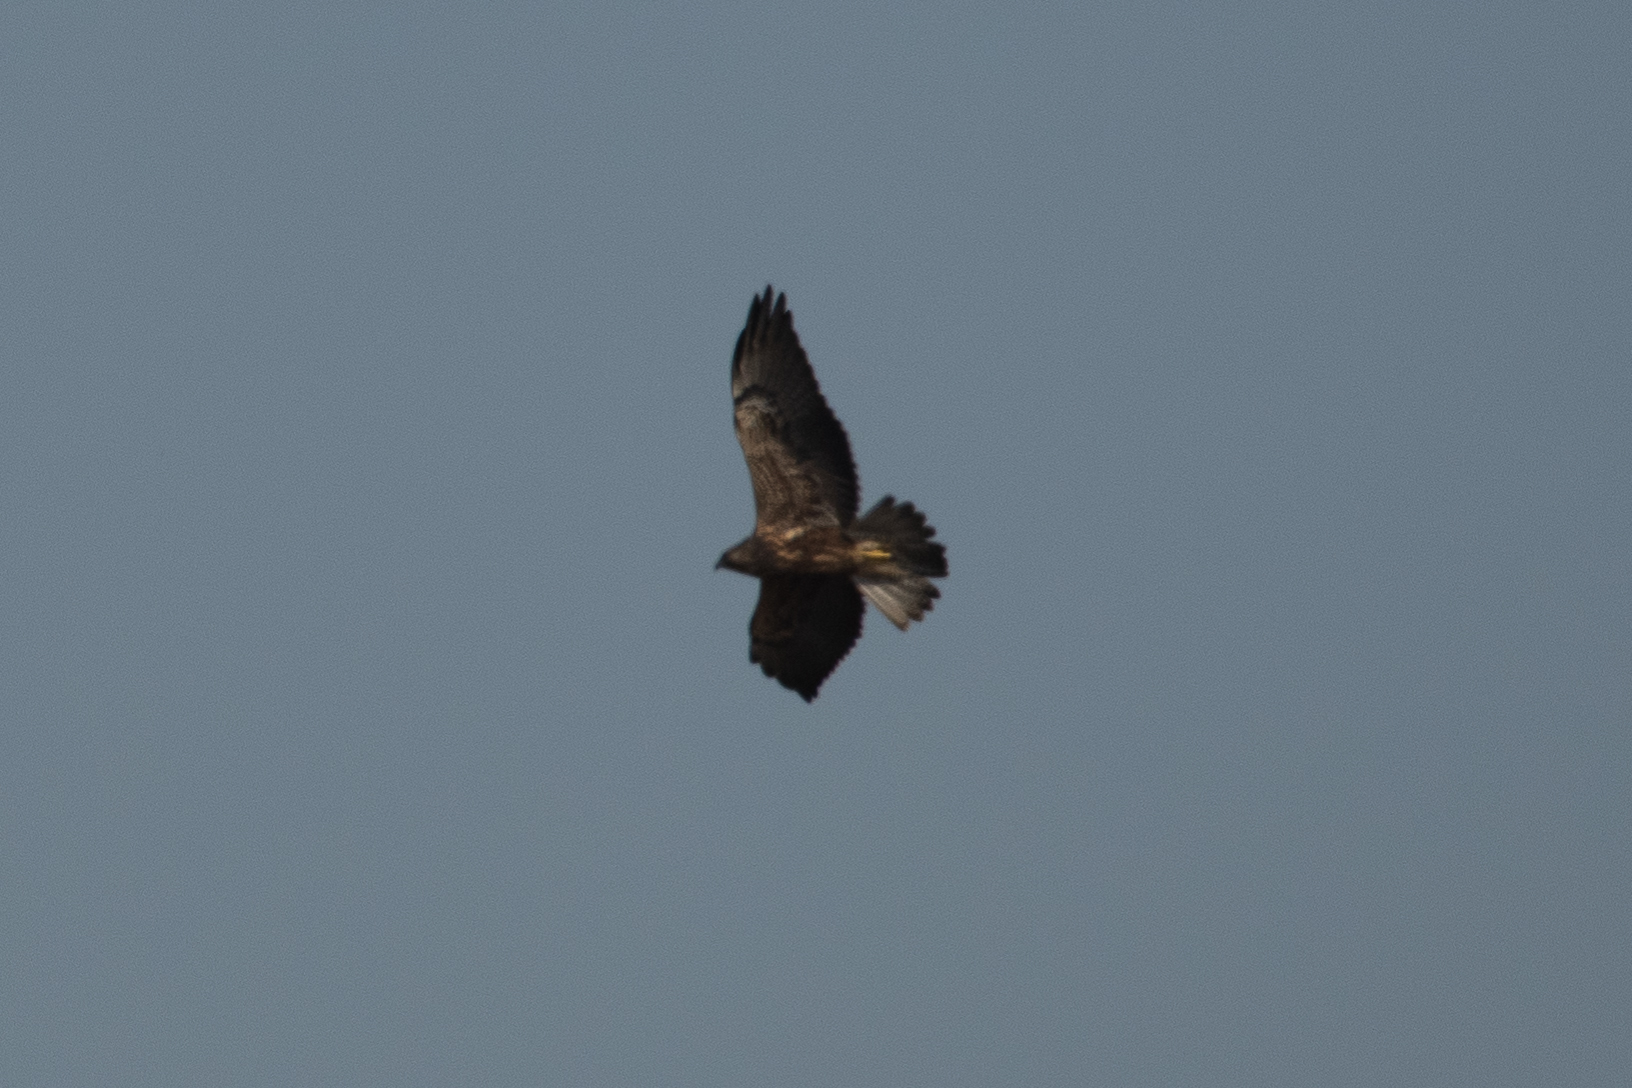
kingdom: Animalia
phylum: Chordata
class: Aves
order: Accipitriformes
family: Accipitridae
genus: Buteo
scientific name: Buteo swainsoni
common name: Swainson's hawk
